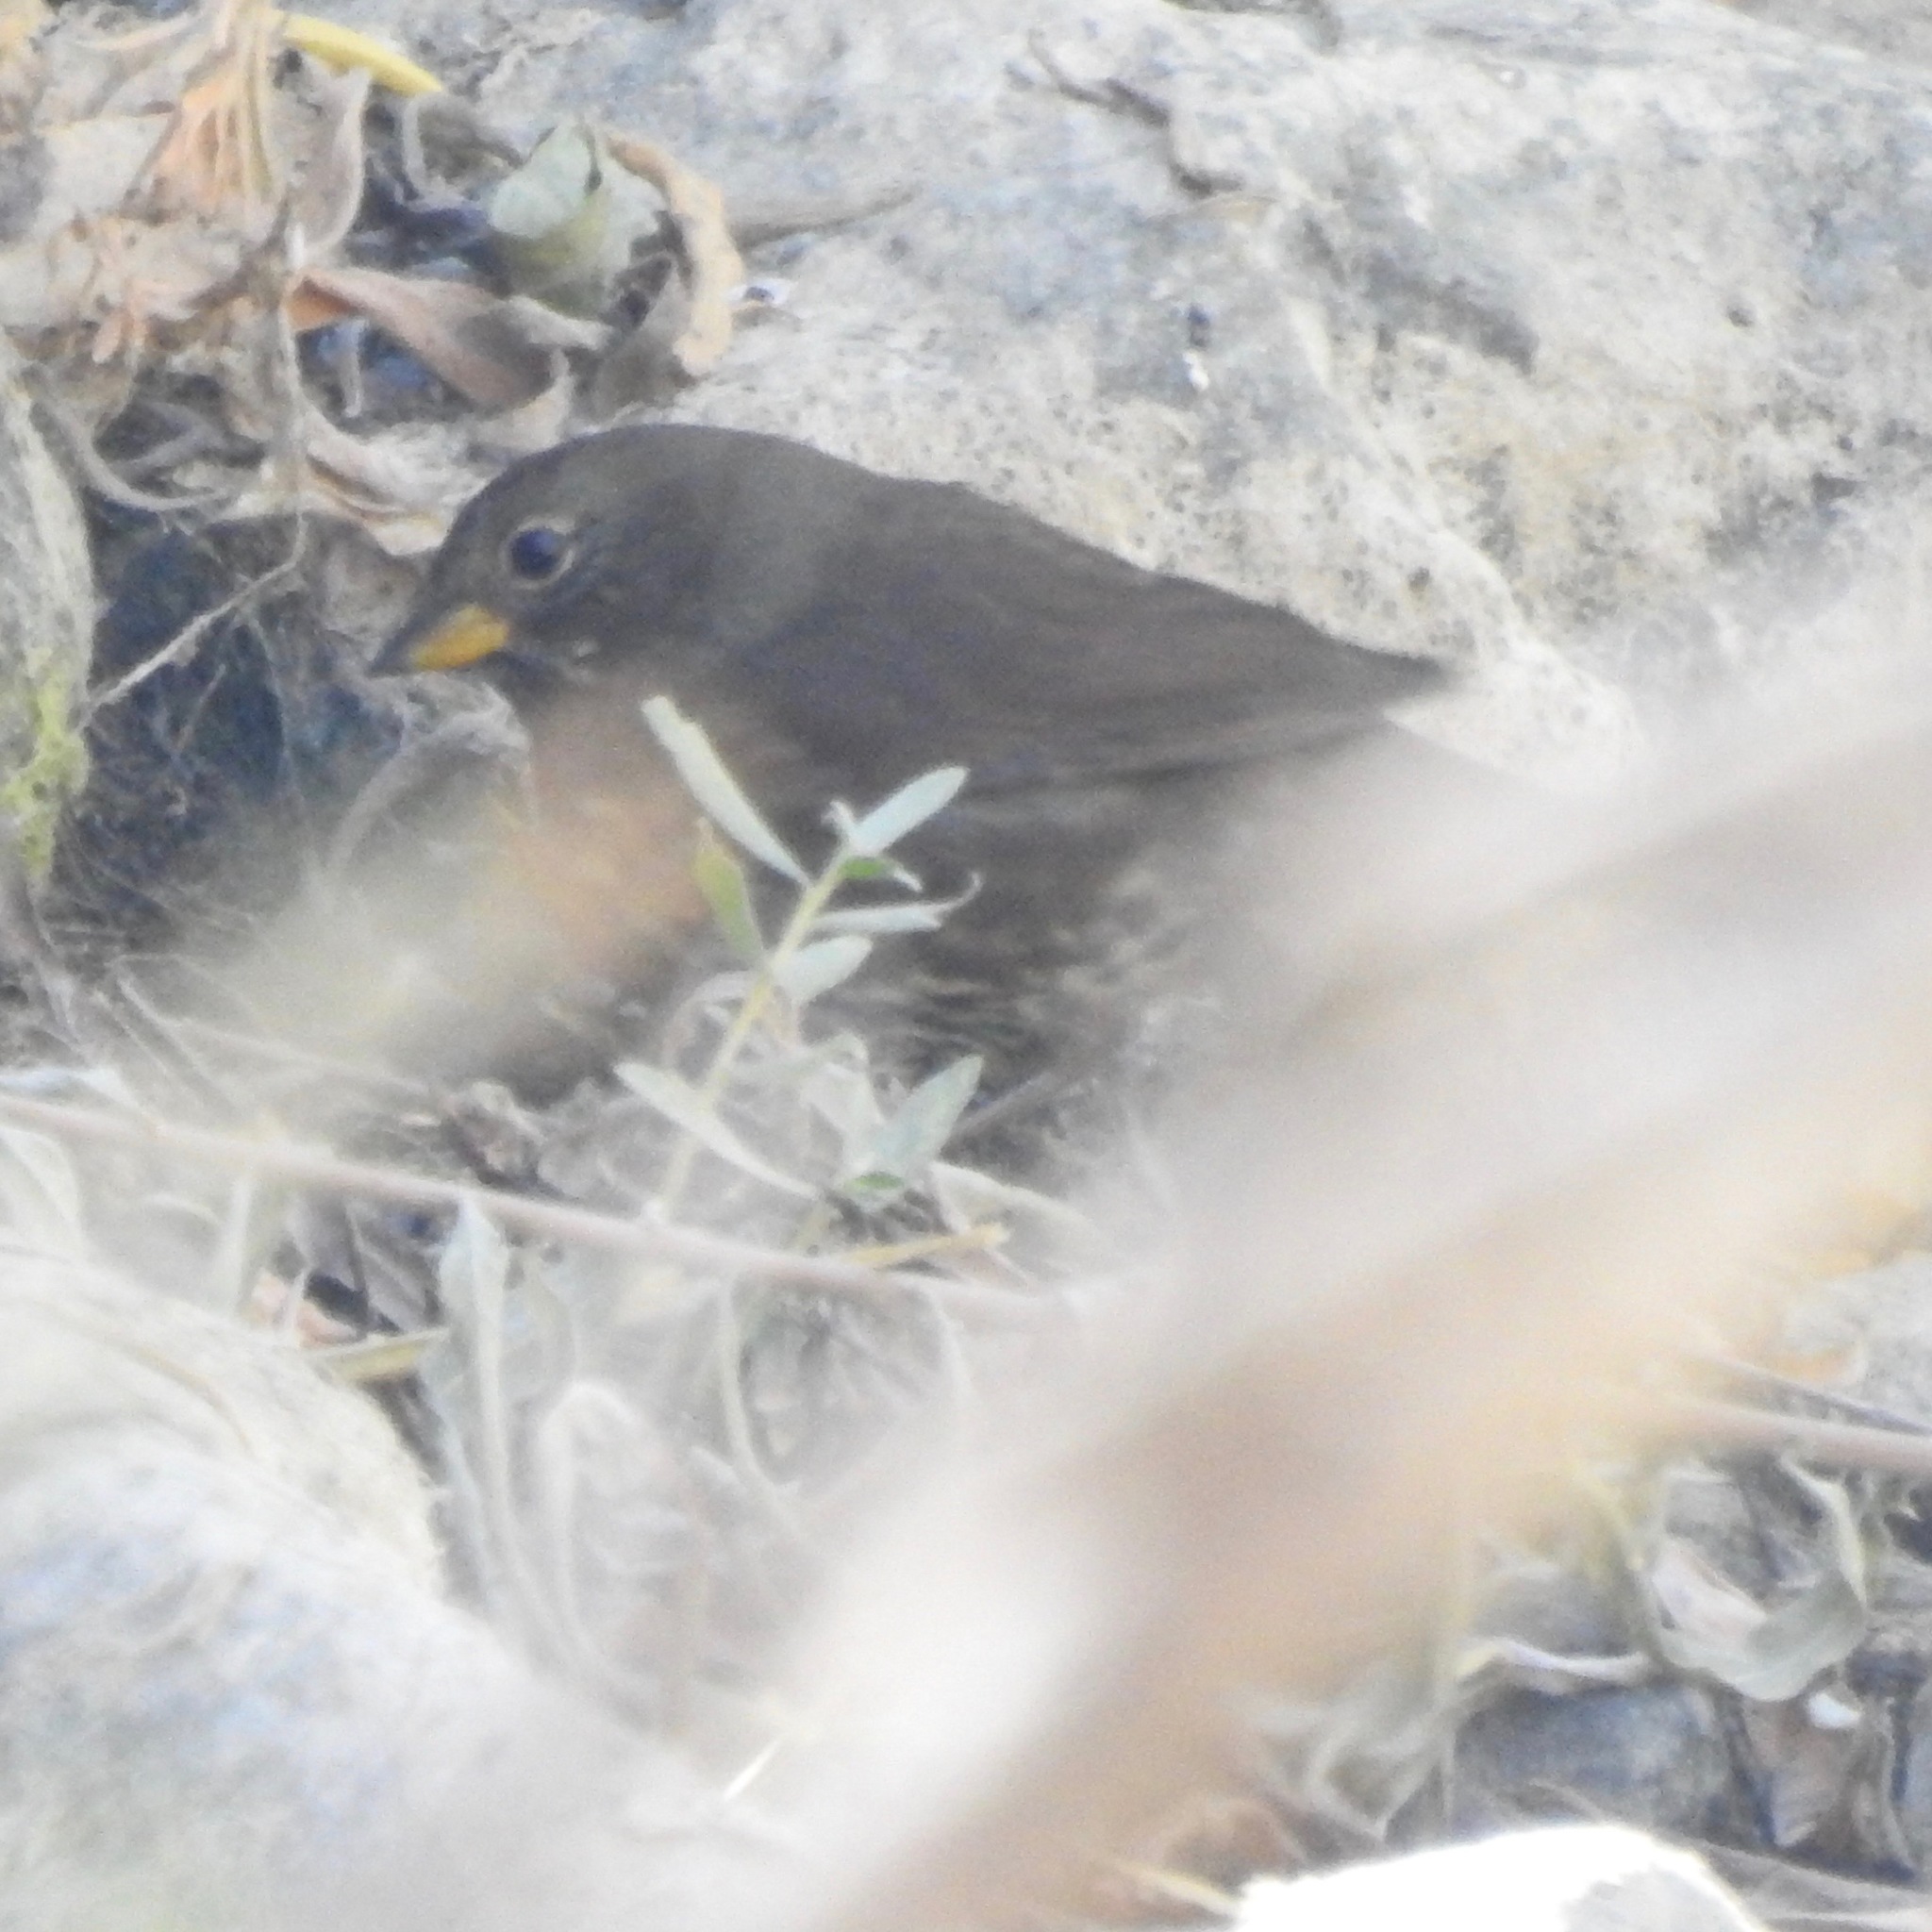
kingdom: Animalia
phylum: Chordata
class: Aves
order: Passeriformes
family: Passerellidae
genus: Passerella
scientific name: Passerella iliaca
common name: Fox sparrow
